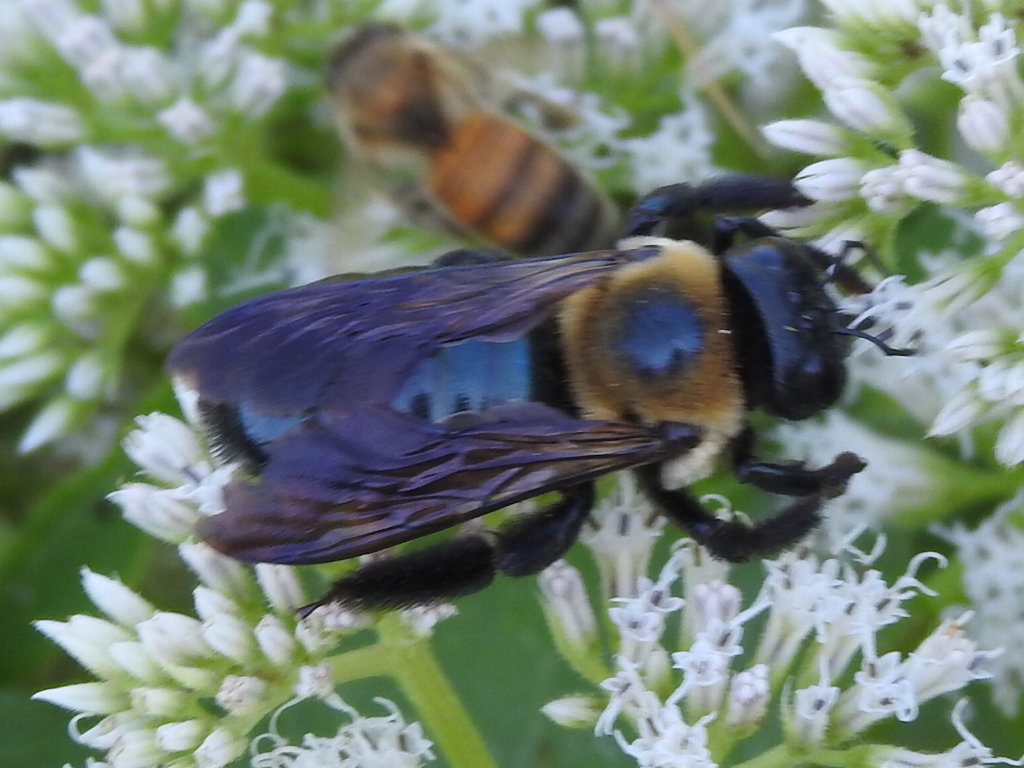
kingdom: Animalia
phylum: Arthropoda
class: Insecta
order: Hymenoptera
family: Apidae
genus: Xylocopa
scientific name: Xylocopa virginica
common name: Carpenter bee
